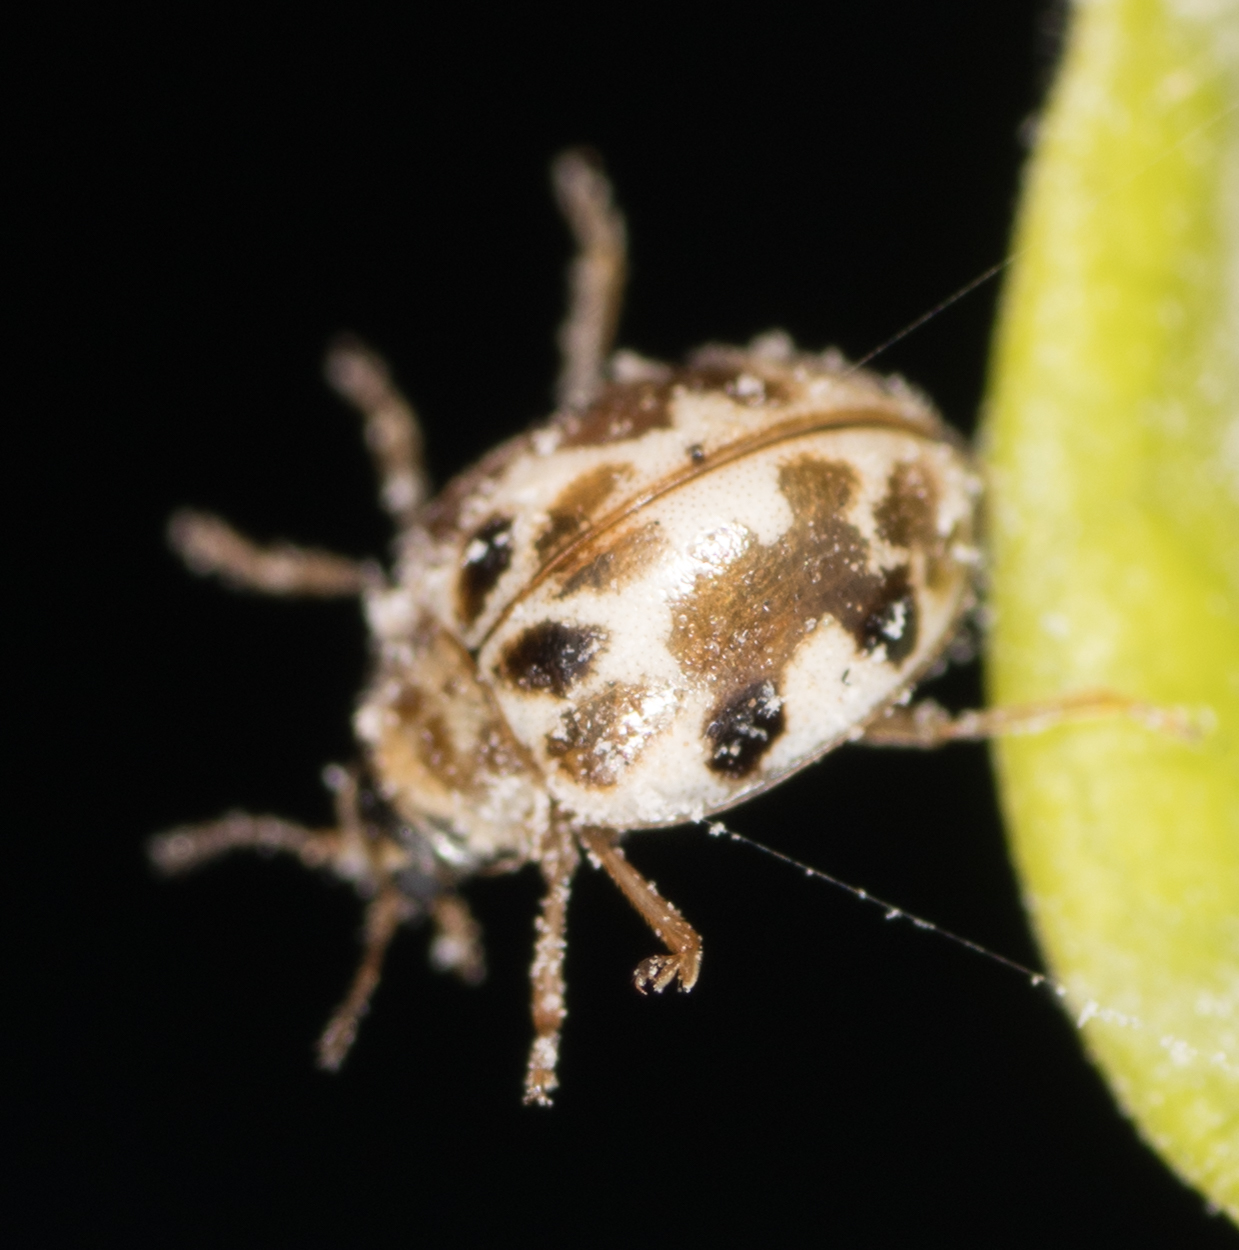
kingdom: Animalia
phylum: Arthropoda
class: Insecta
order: Coleoptera
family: Coccinellidae
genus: Psyllobora
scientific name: Psyllobora vigintimaculata
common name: Ladybird beetle
